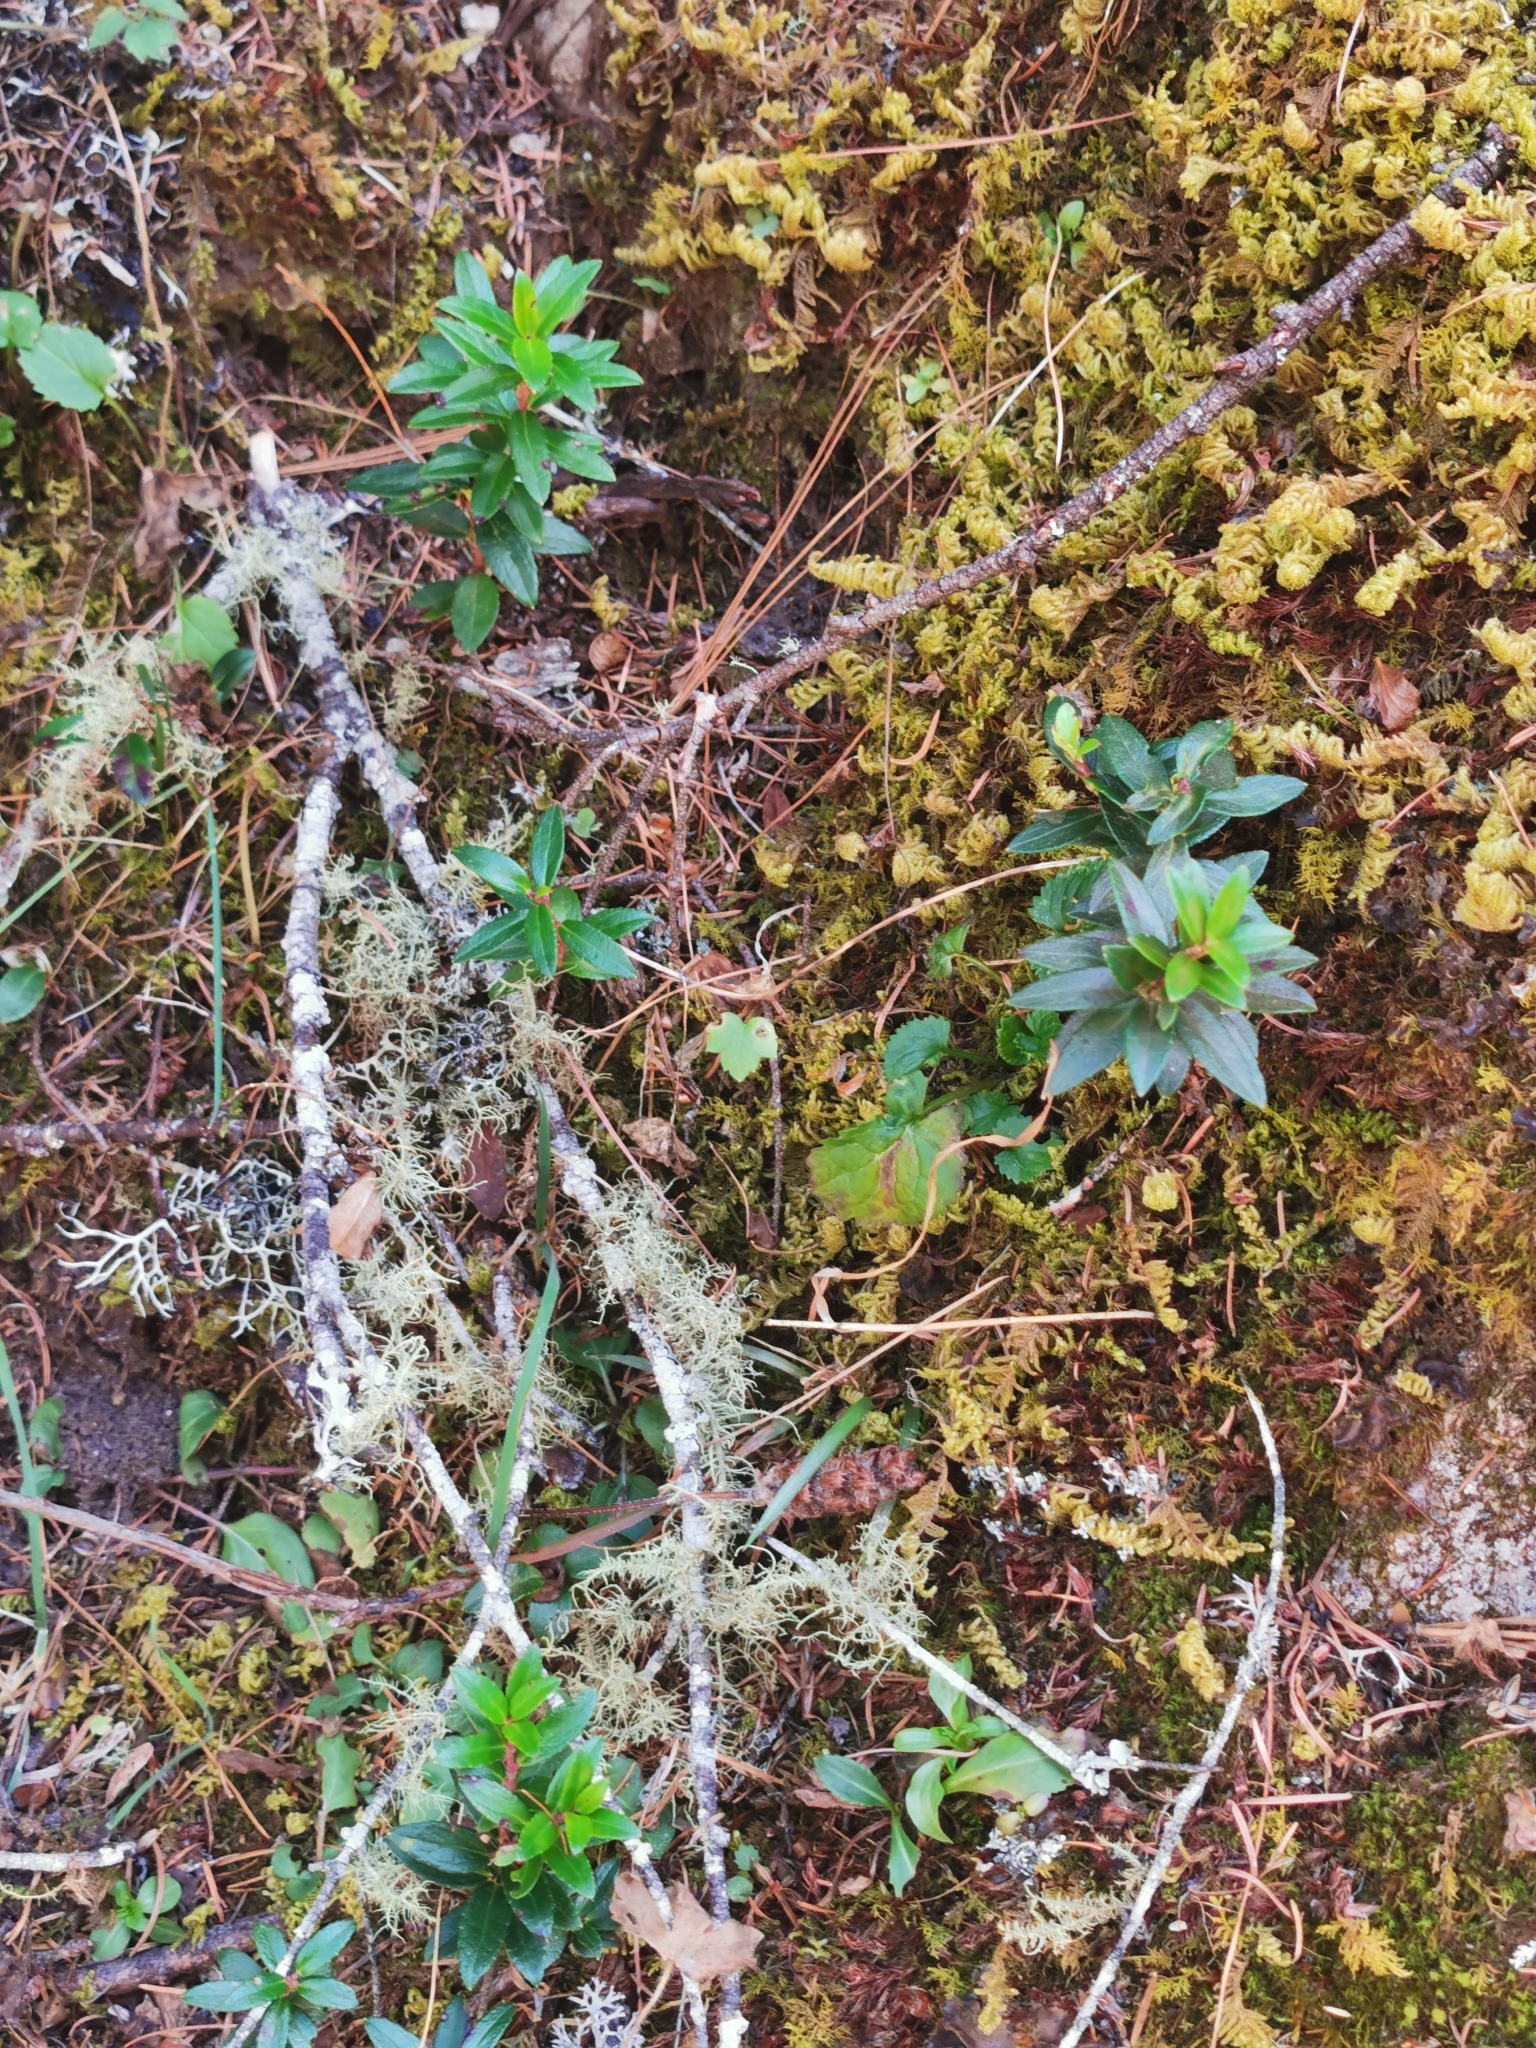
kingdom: Plantae
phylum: Tracheophyta
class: Magnoliopsida
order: Ericales
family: Ericaceae
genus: Gaultheria
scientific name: Gaultheria myrsinoides
